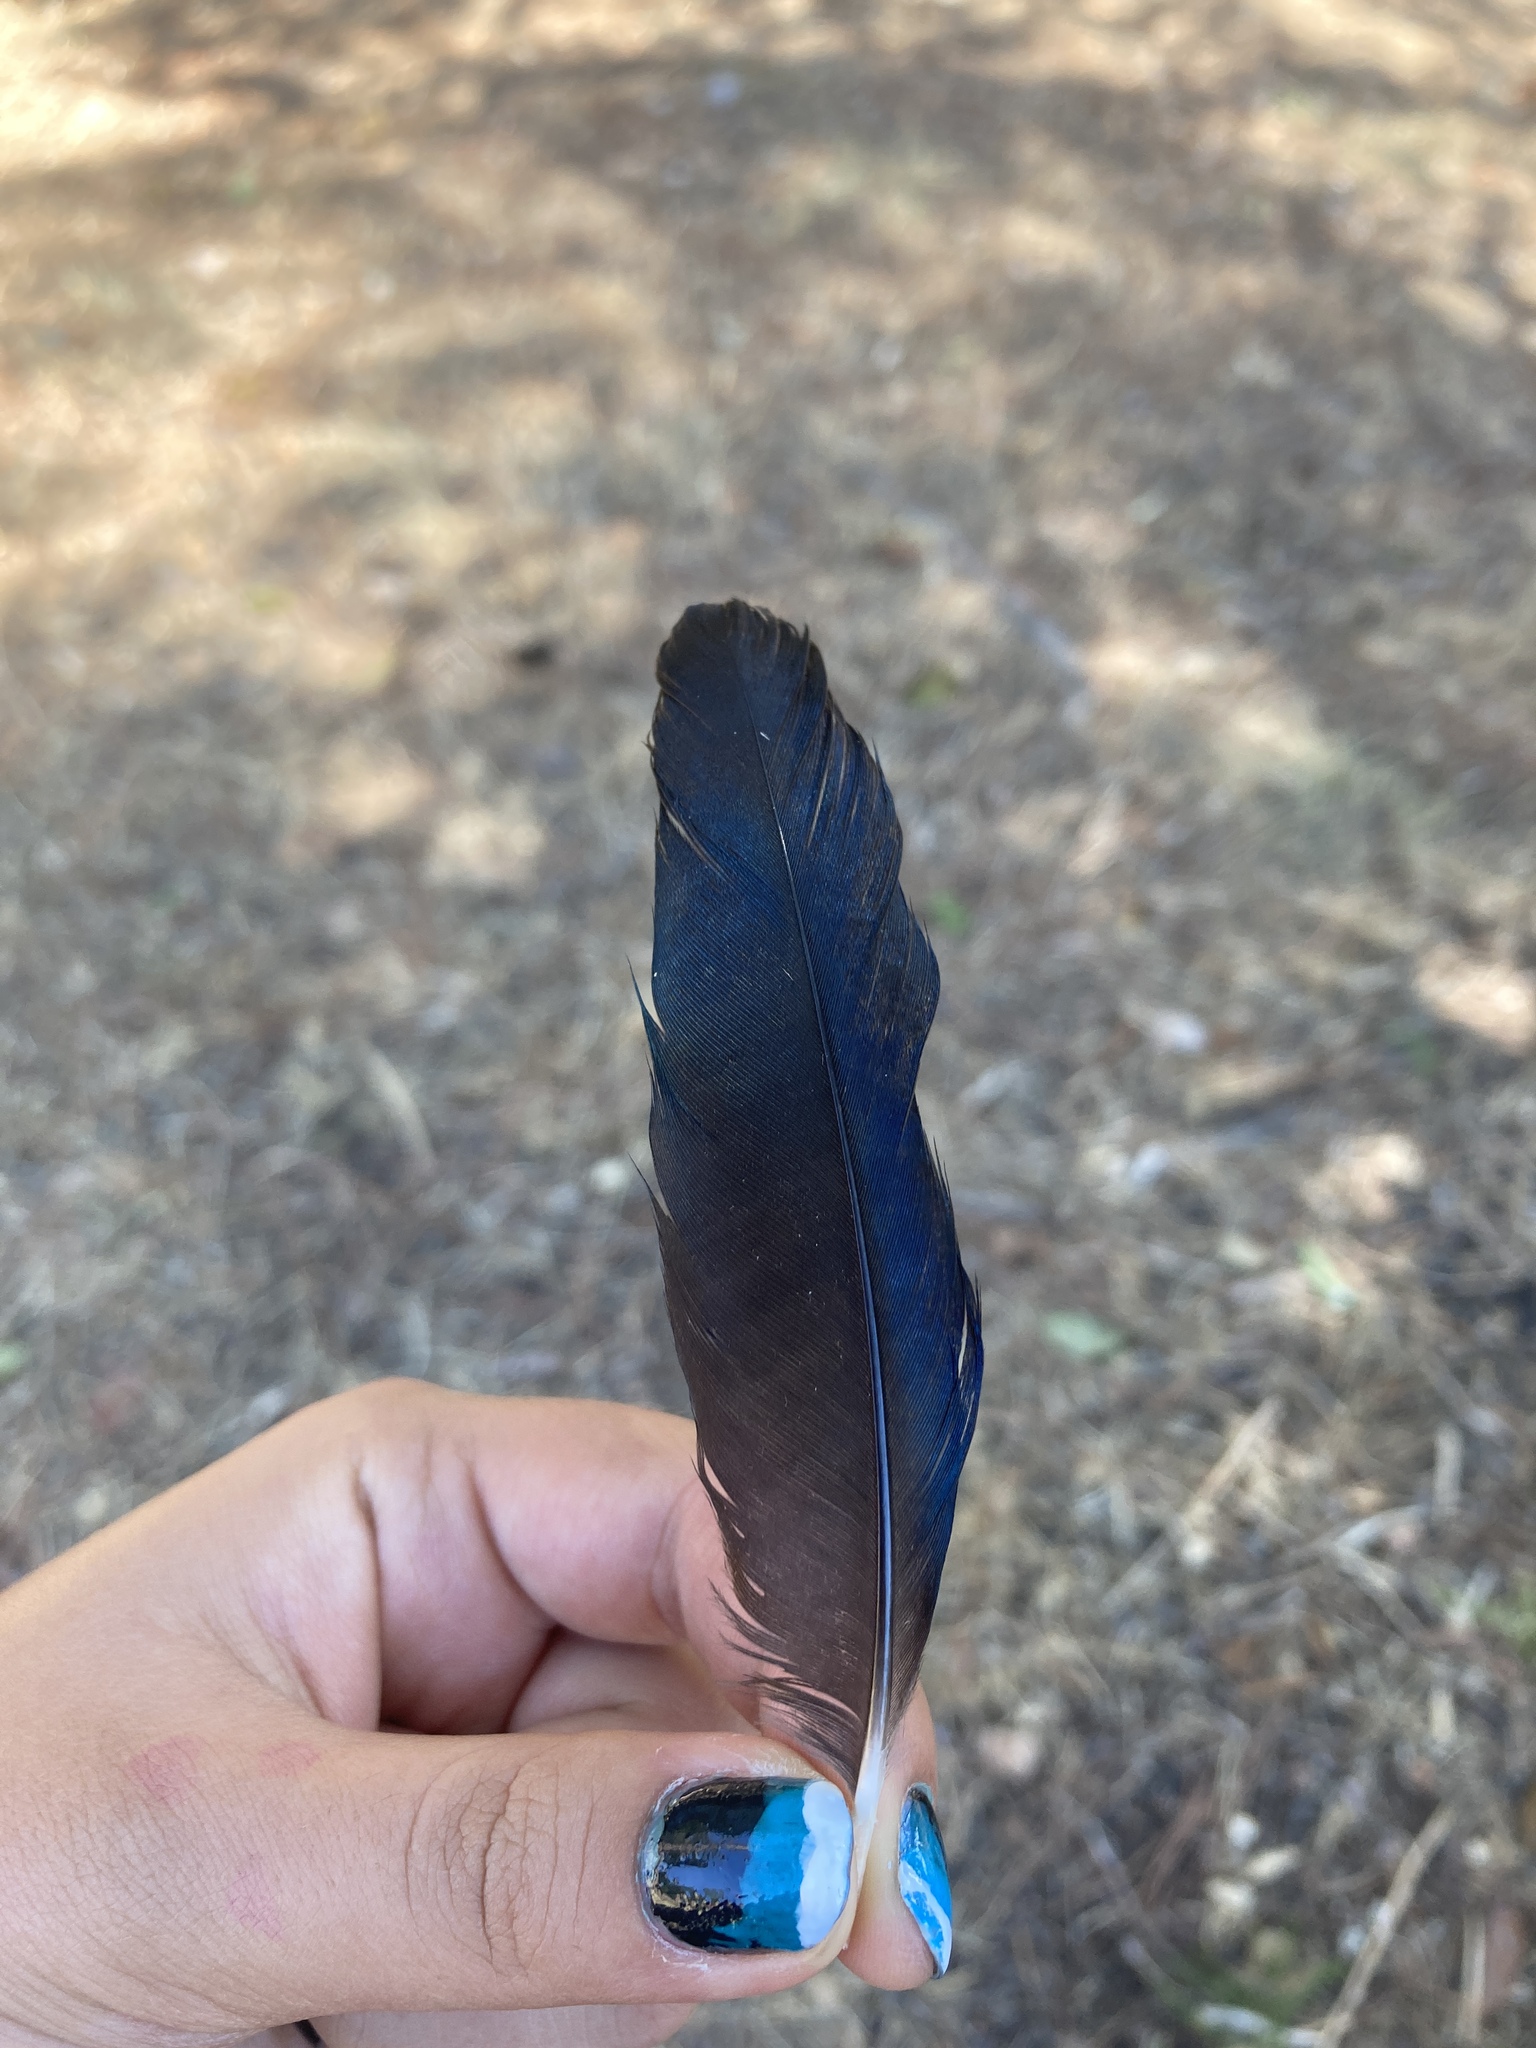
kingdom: Animalia
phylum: Chordata
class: Aves
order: Passeriformes
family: Corvidae
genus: Pica
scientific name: Pica pica
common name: Eurasian magpie
